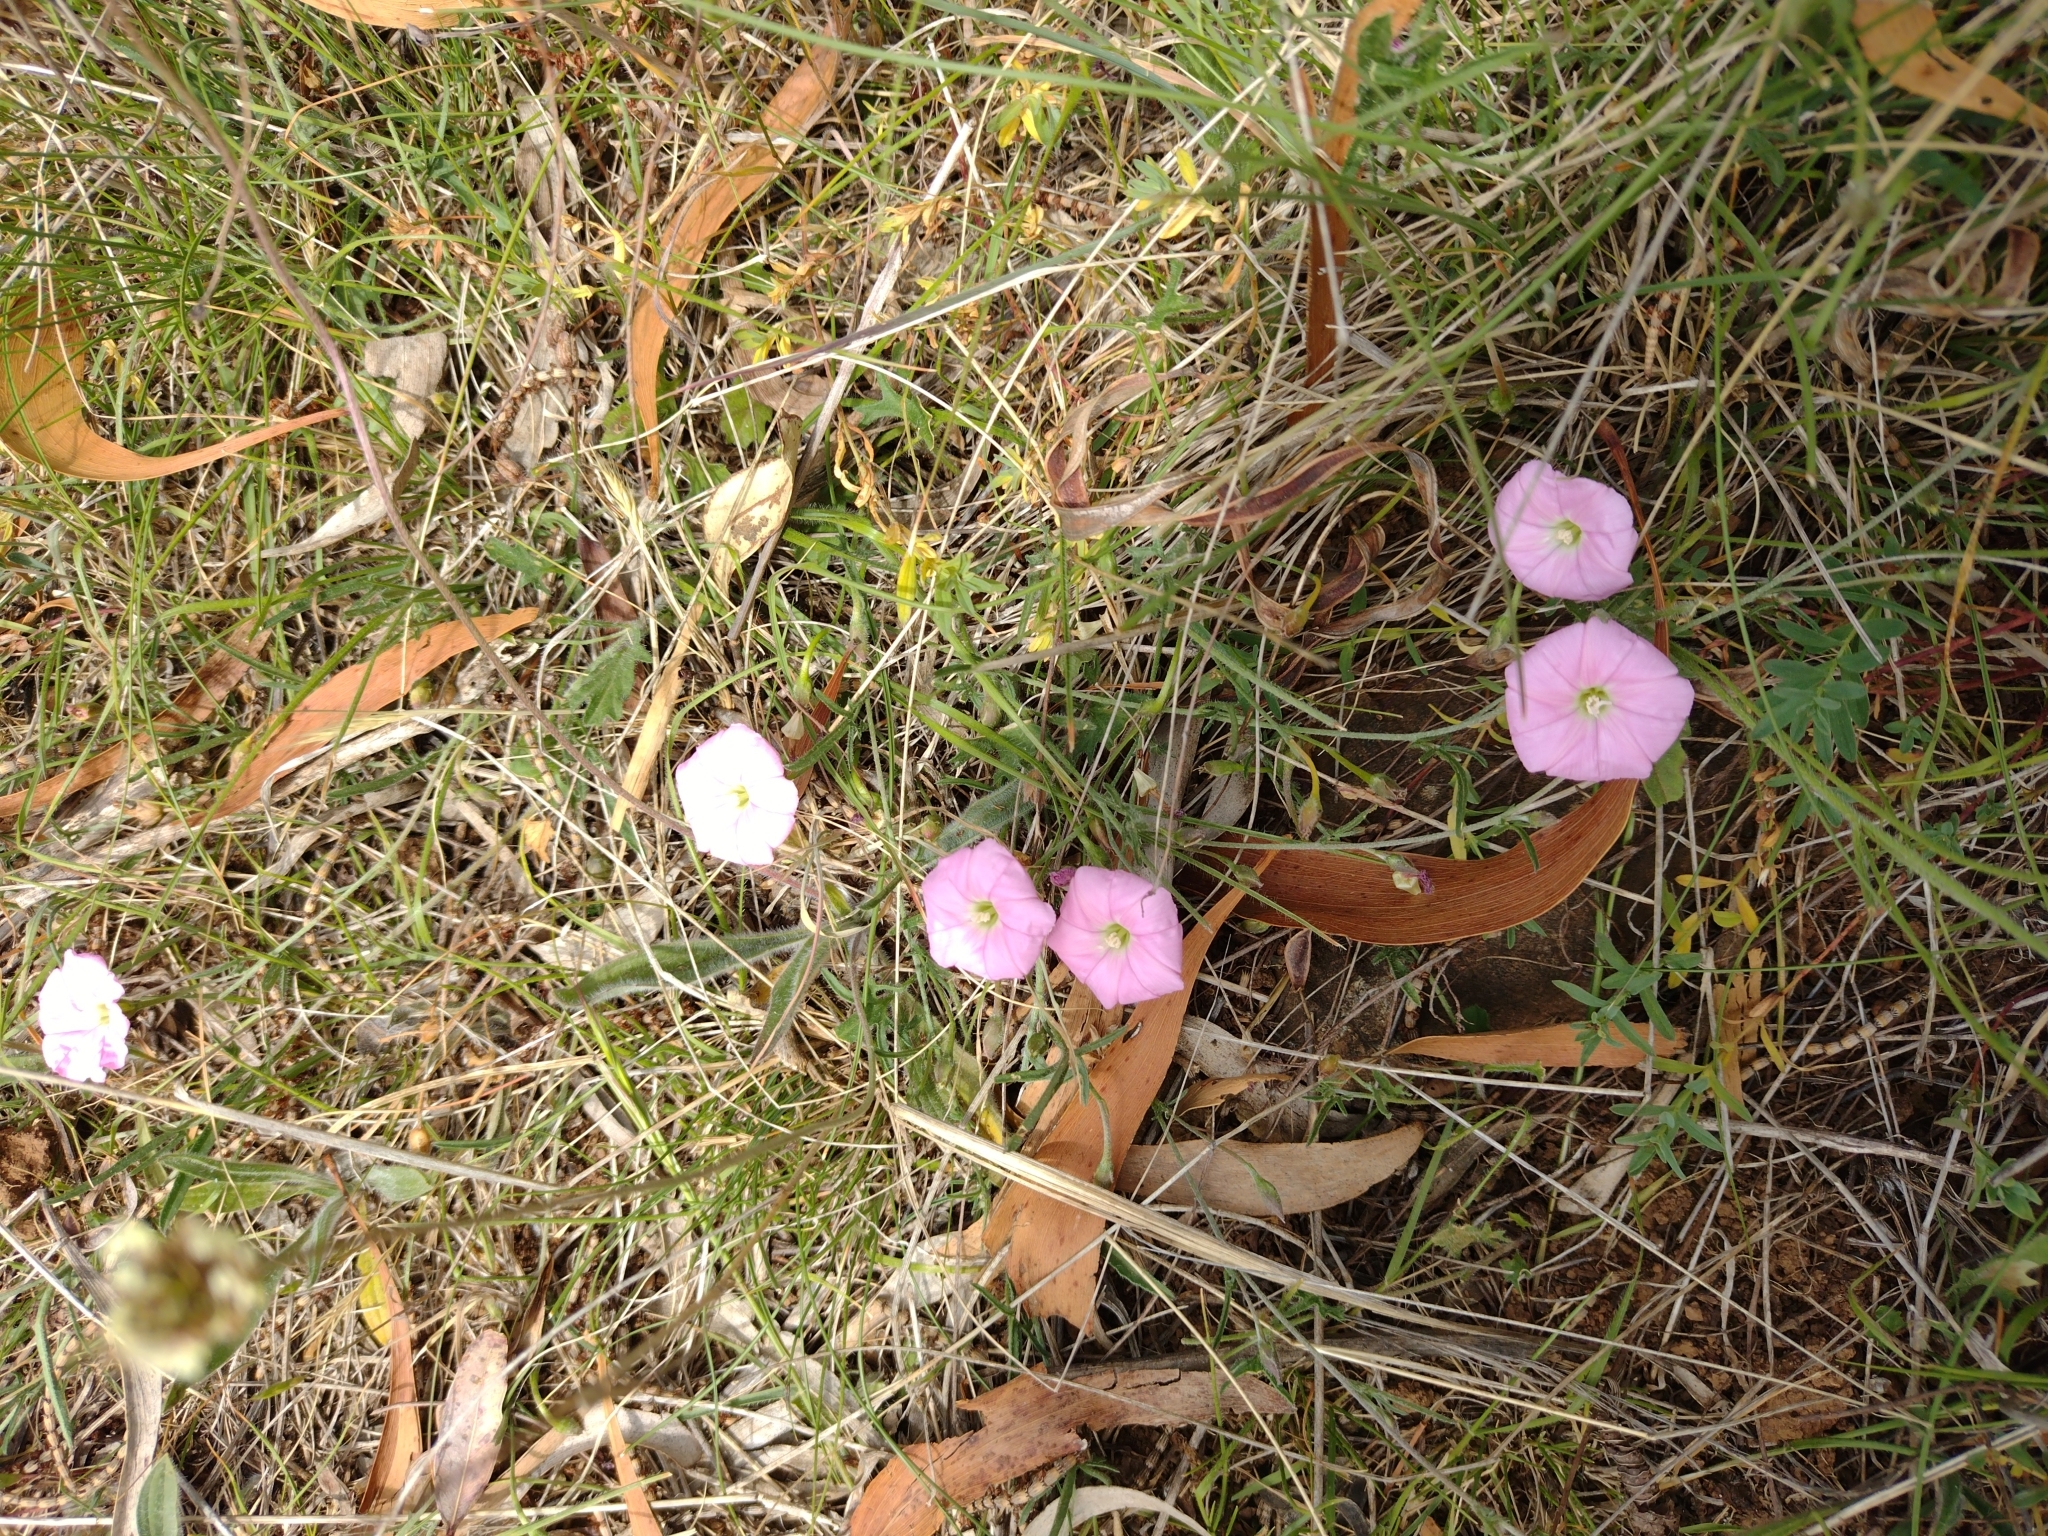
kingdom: Plantae
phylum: Tracheophyta
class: Magnoliopsida
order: Solanales
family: Convolvulaceae
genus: Convolvulus
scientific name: Convolvulus angustissimus
